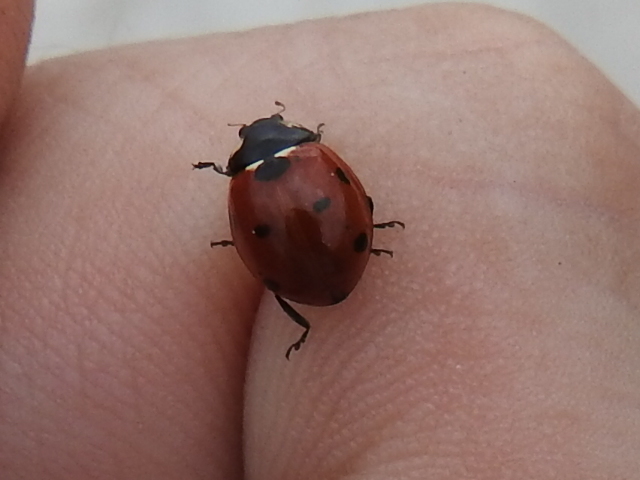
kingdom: Animalia
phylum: Arthropoda
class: Insecta
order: Coleoptera
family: Coccinellidae
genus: Coccinella
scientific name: Coccinella septempunctata
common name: Sevenspotted lady beetle
